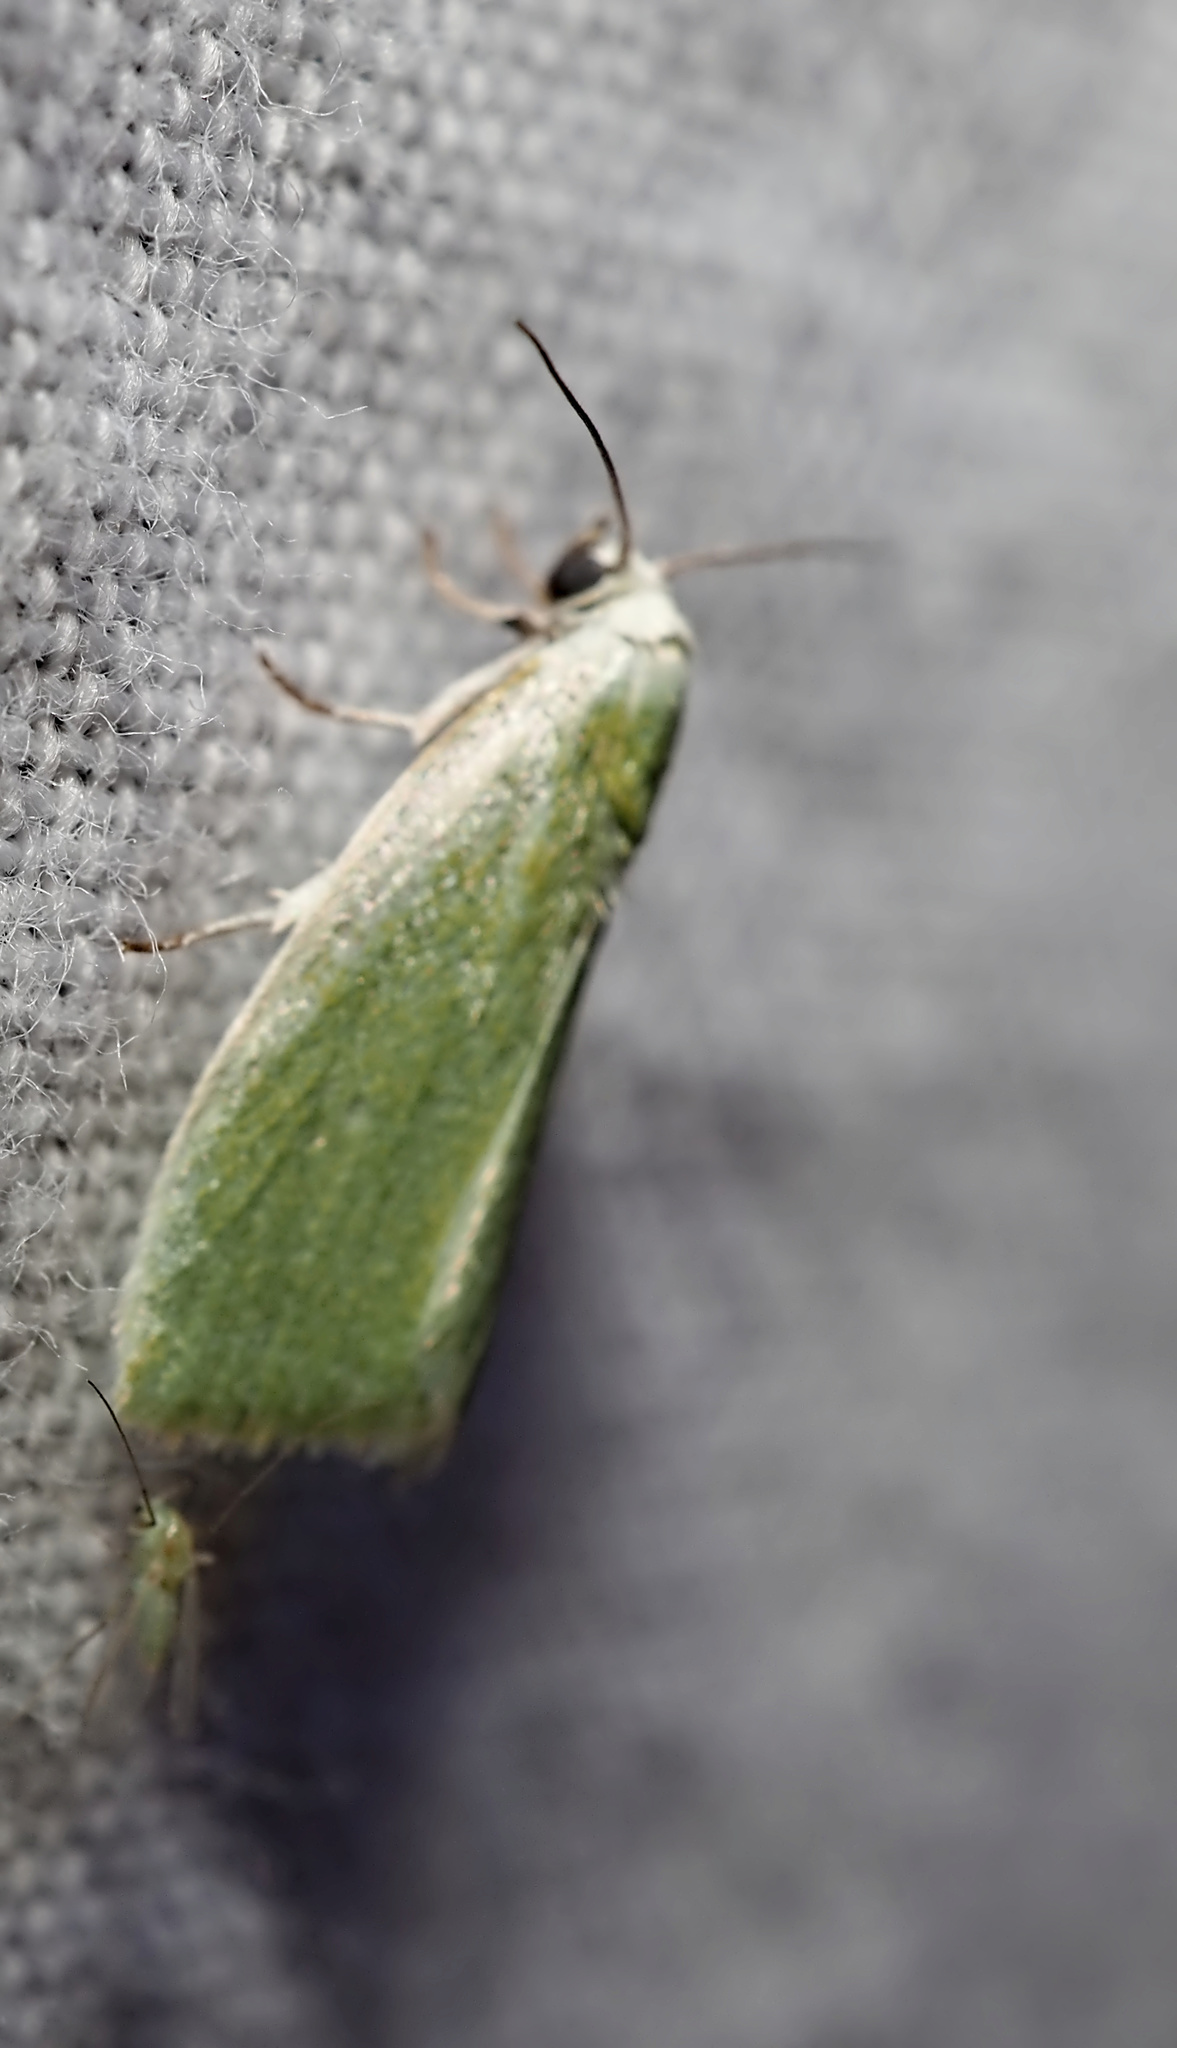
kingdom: Animalia
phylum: Arthropoda
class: Insecta
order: Lepidoptera
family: Nolidae
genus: Earias
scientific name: Earias clorana
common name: Cream-bordered green pea
